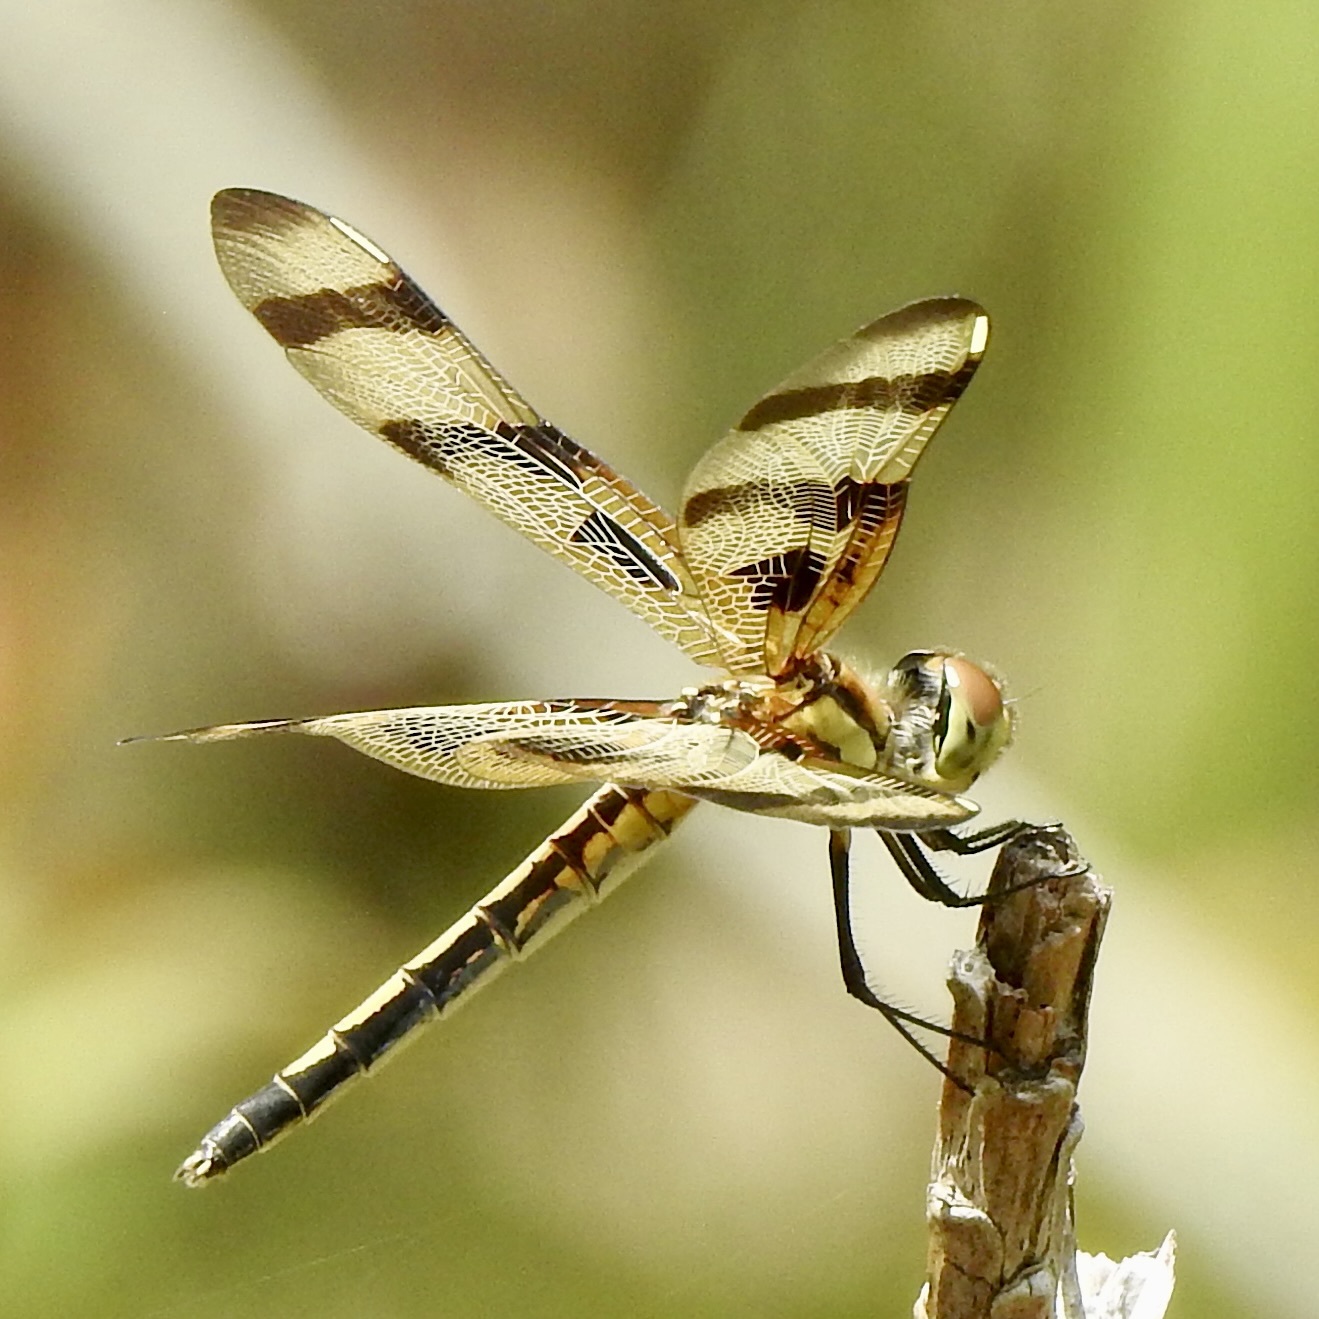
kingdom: Animalia
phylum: Arthropoda
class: Insecta
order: Odonata
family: Libellulidae
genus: Celithemis
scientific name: Celithemis eponina
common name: Halloween pennant
